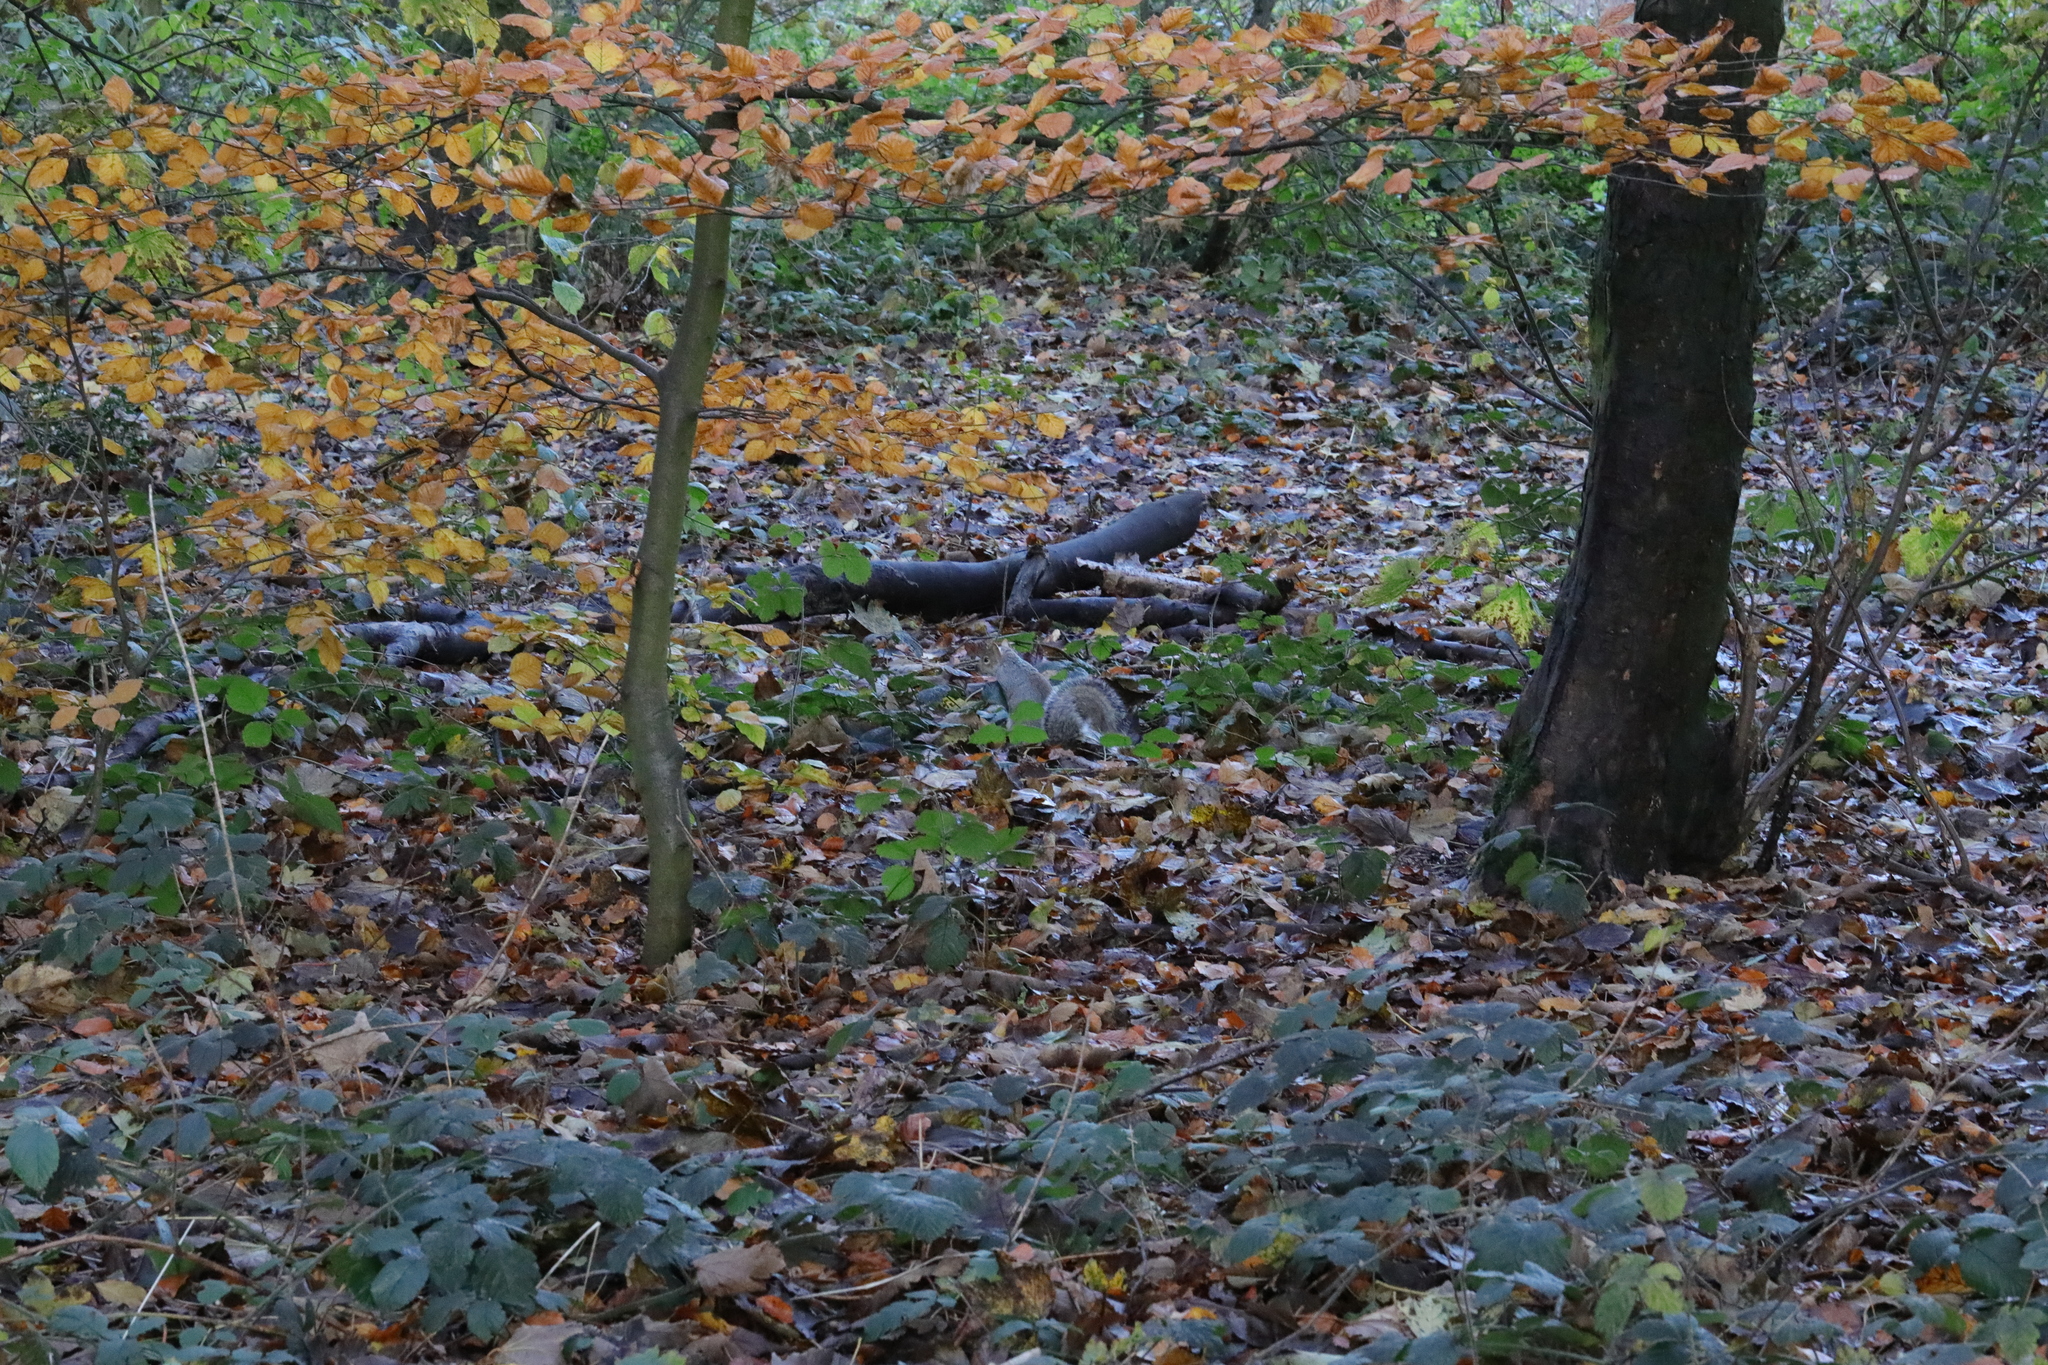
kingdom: Animalia
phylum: Chordata
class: Mammalia
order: Rodentia
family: Sciuridae
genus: Sciurus
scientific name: Sciurus carolinensis
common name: Eastern gray squirrel
